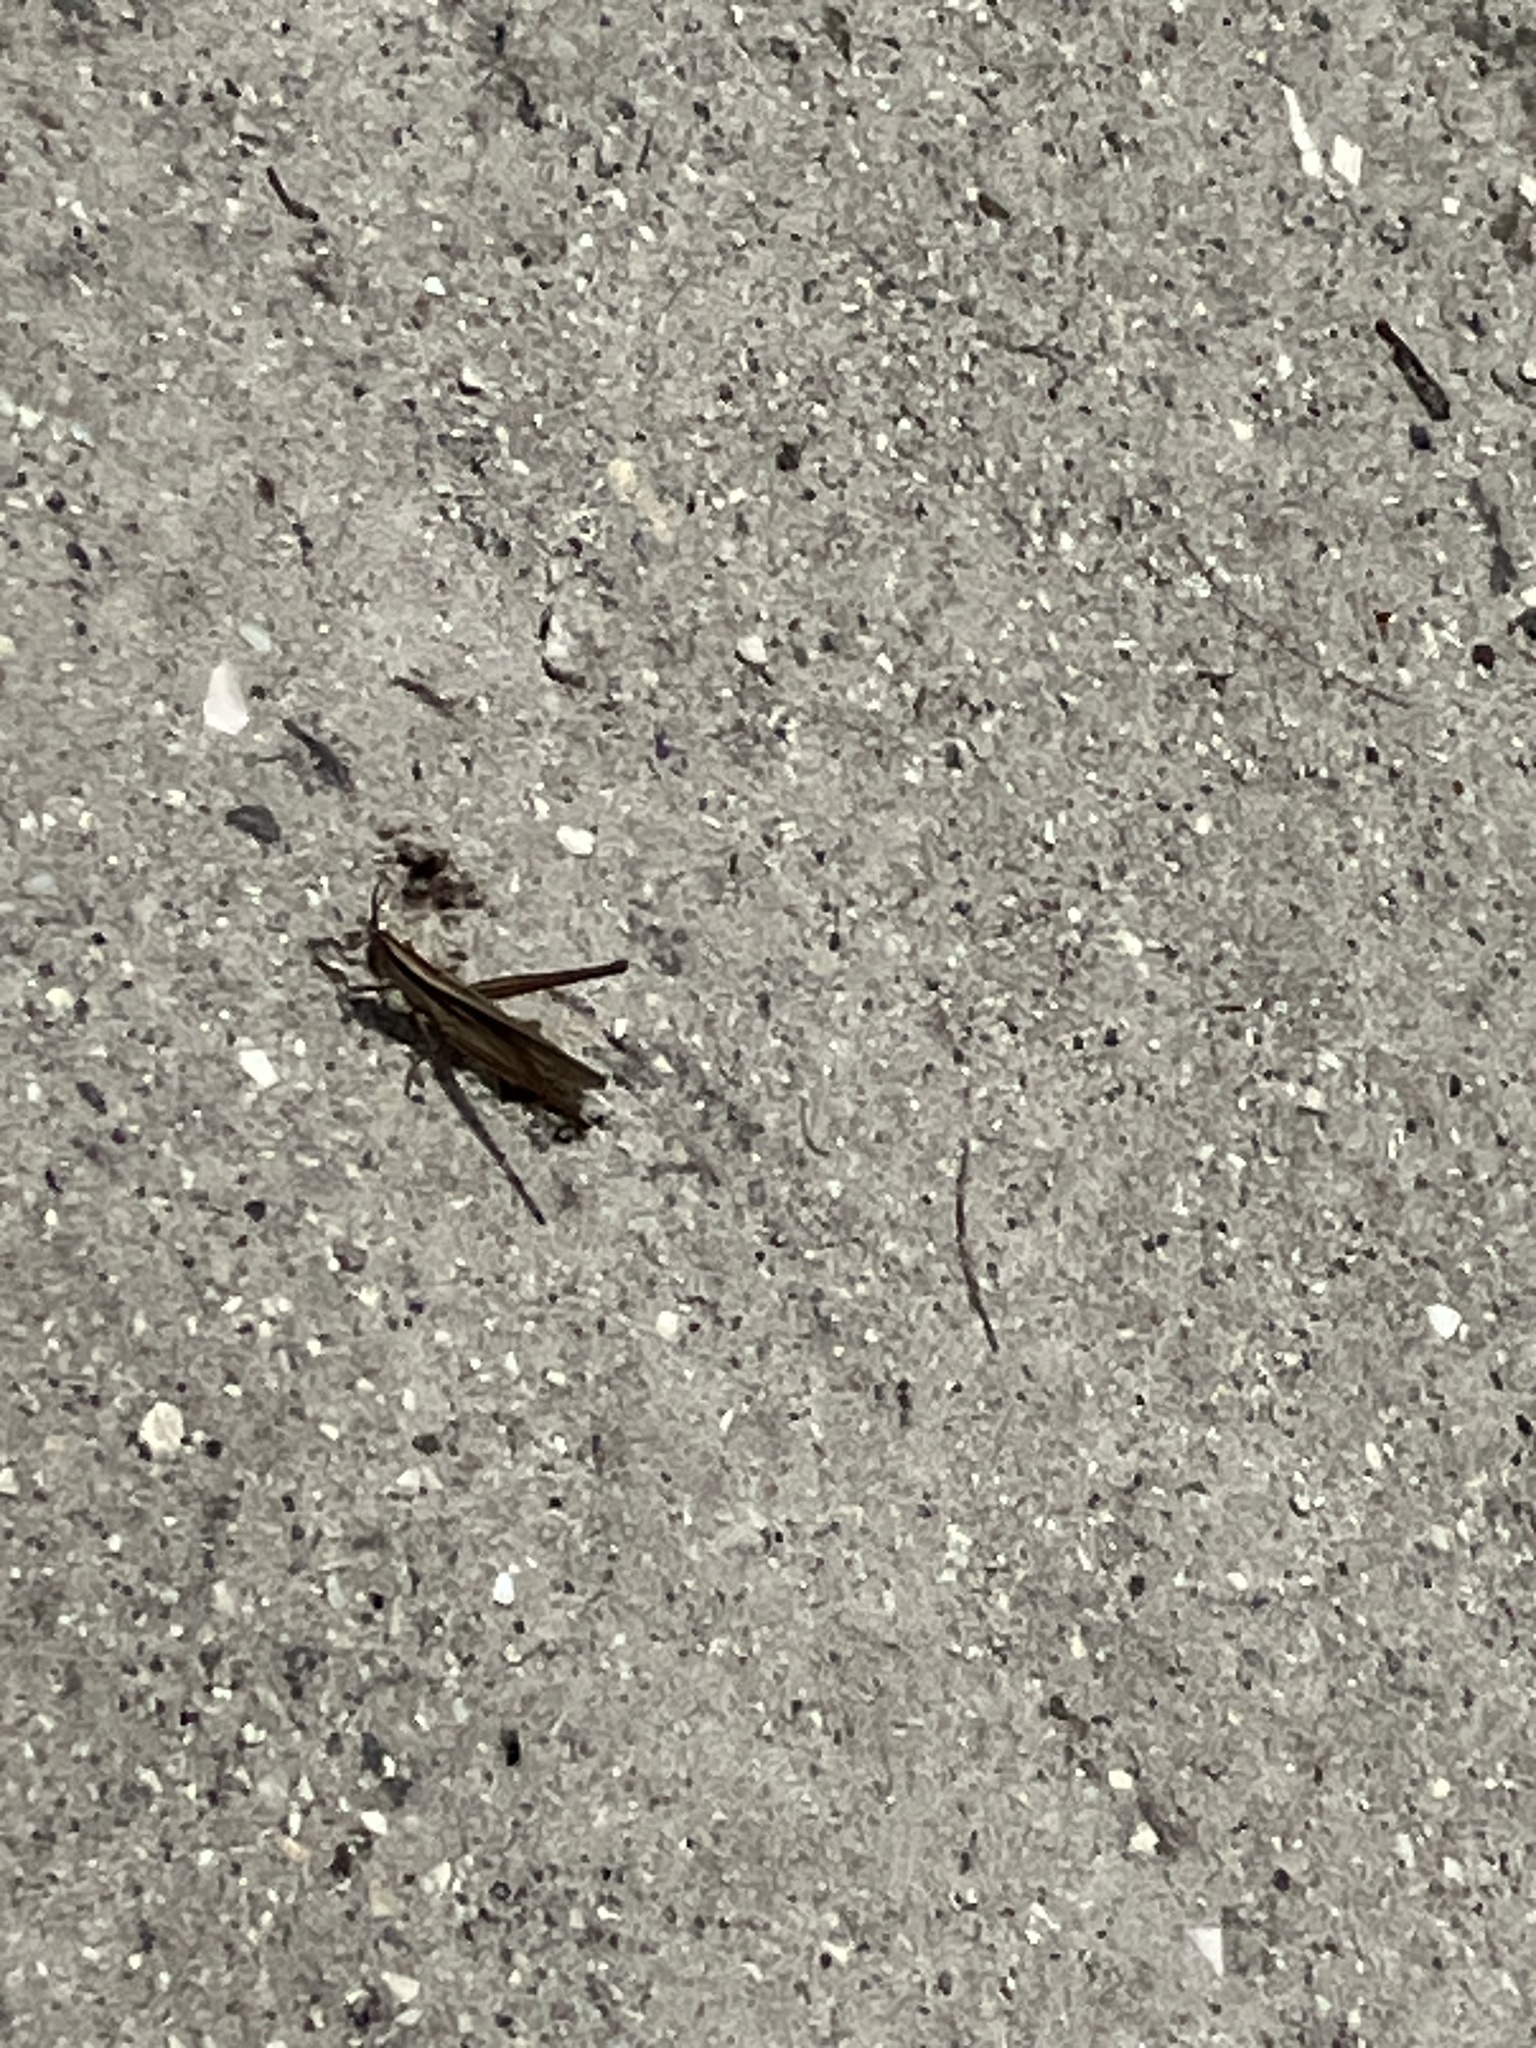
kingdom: Animalia
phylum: Arthropoda
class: Insecta
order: Orthoptera
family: Acrididae
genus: Mermiria
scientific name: Mermiria intertexta
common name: Eastern mermiria grasshopper
